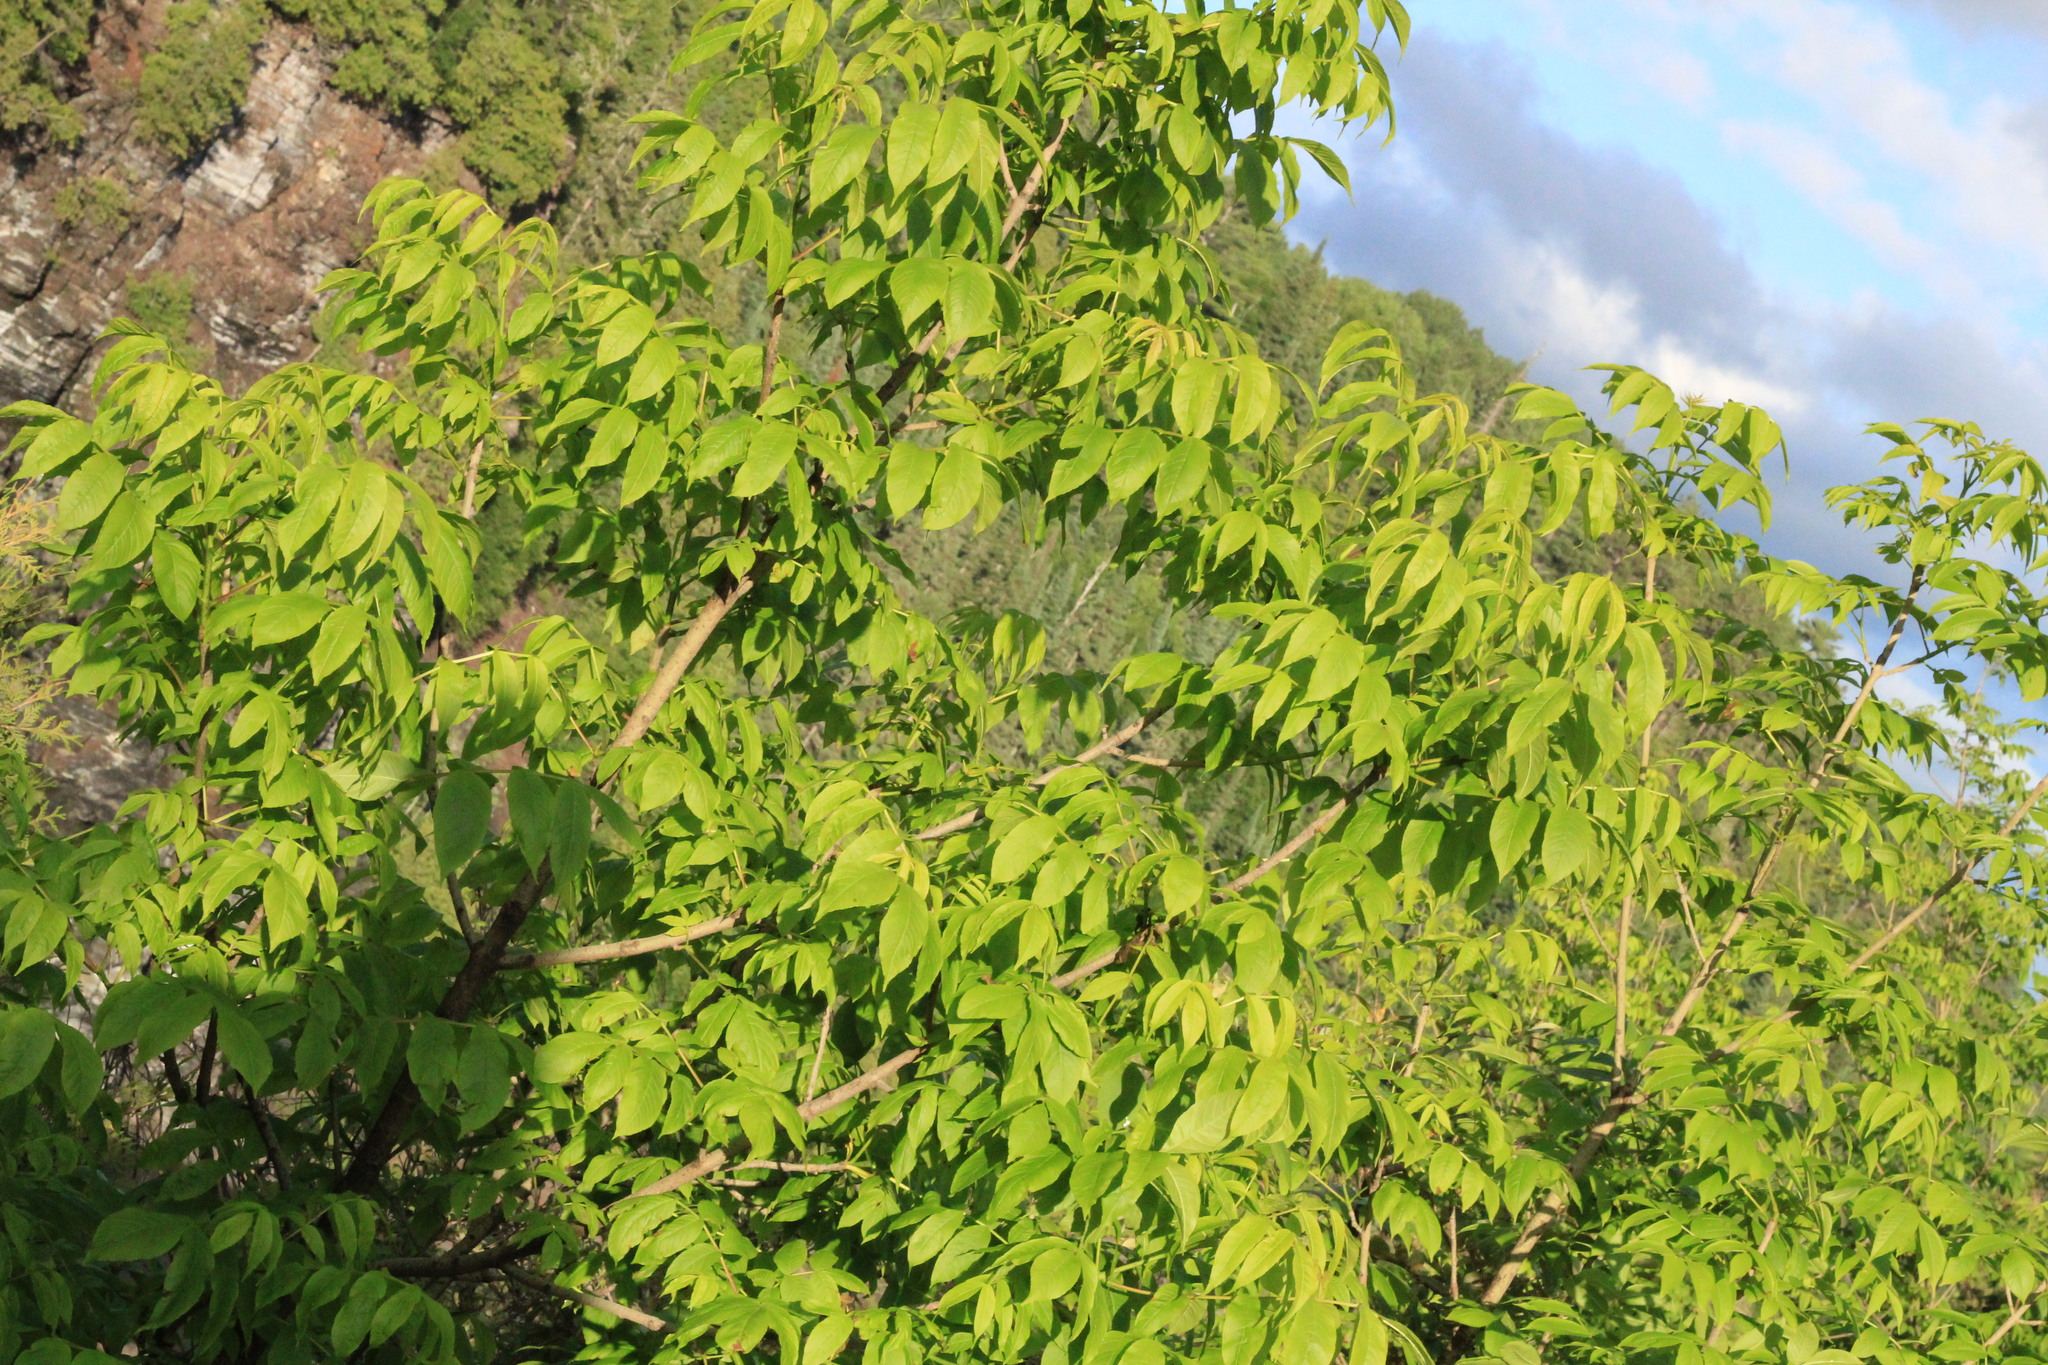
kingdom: Plantae
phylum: Tracheophyta
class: Magnoliopsida
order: Lamiales
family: Oleaceae
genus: Fraxinus
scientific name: Fraxinus nigra
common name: Black ash
